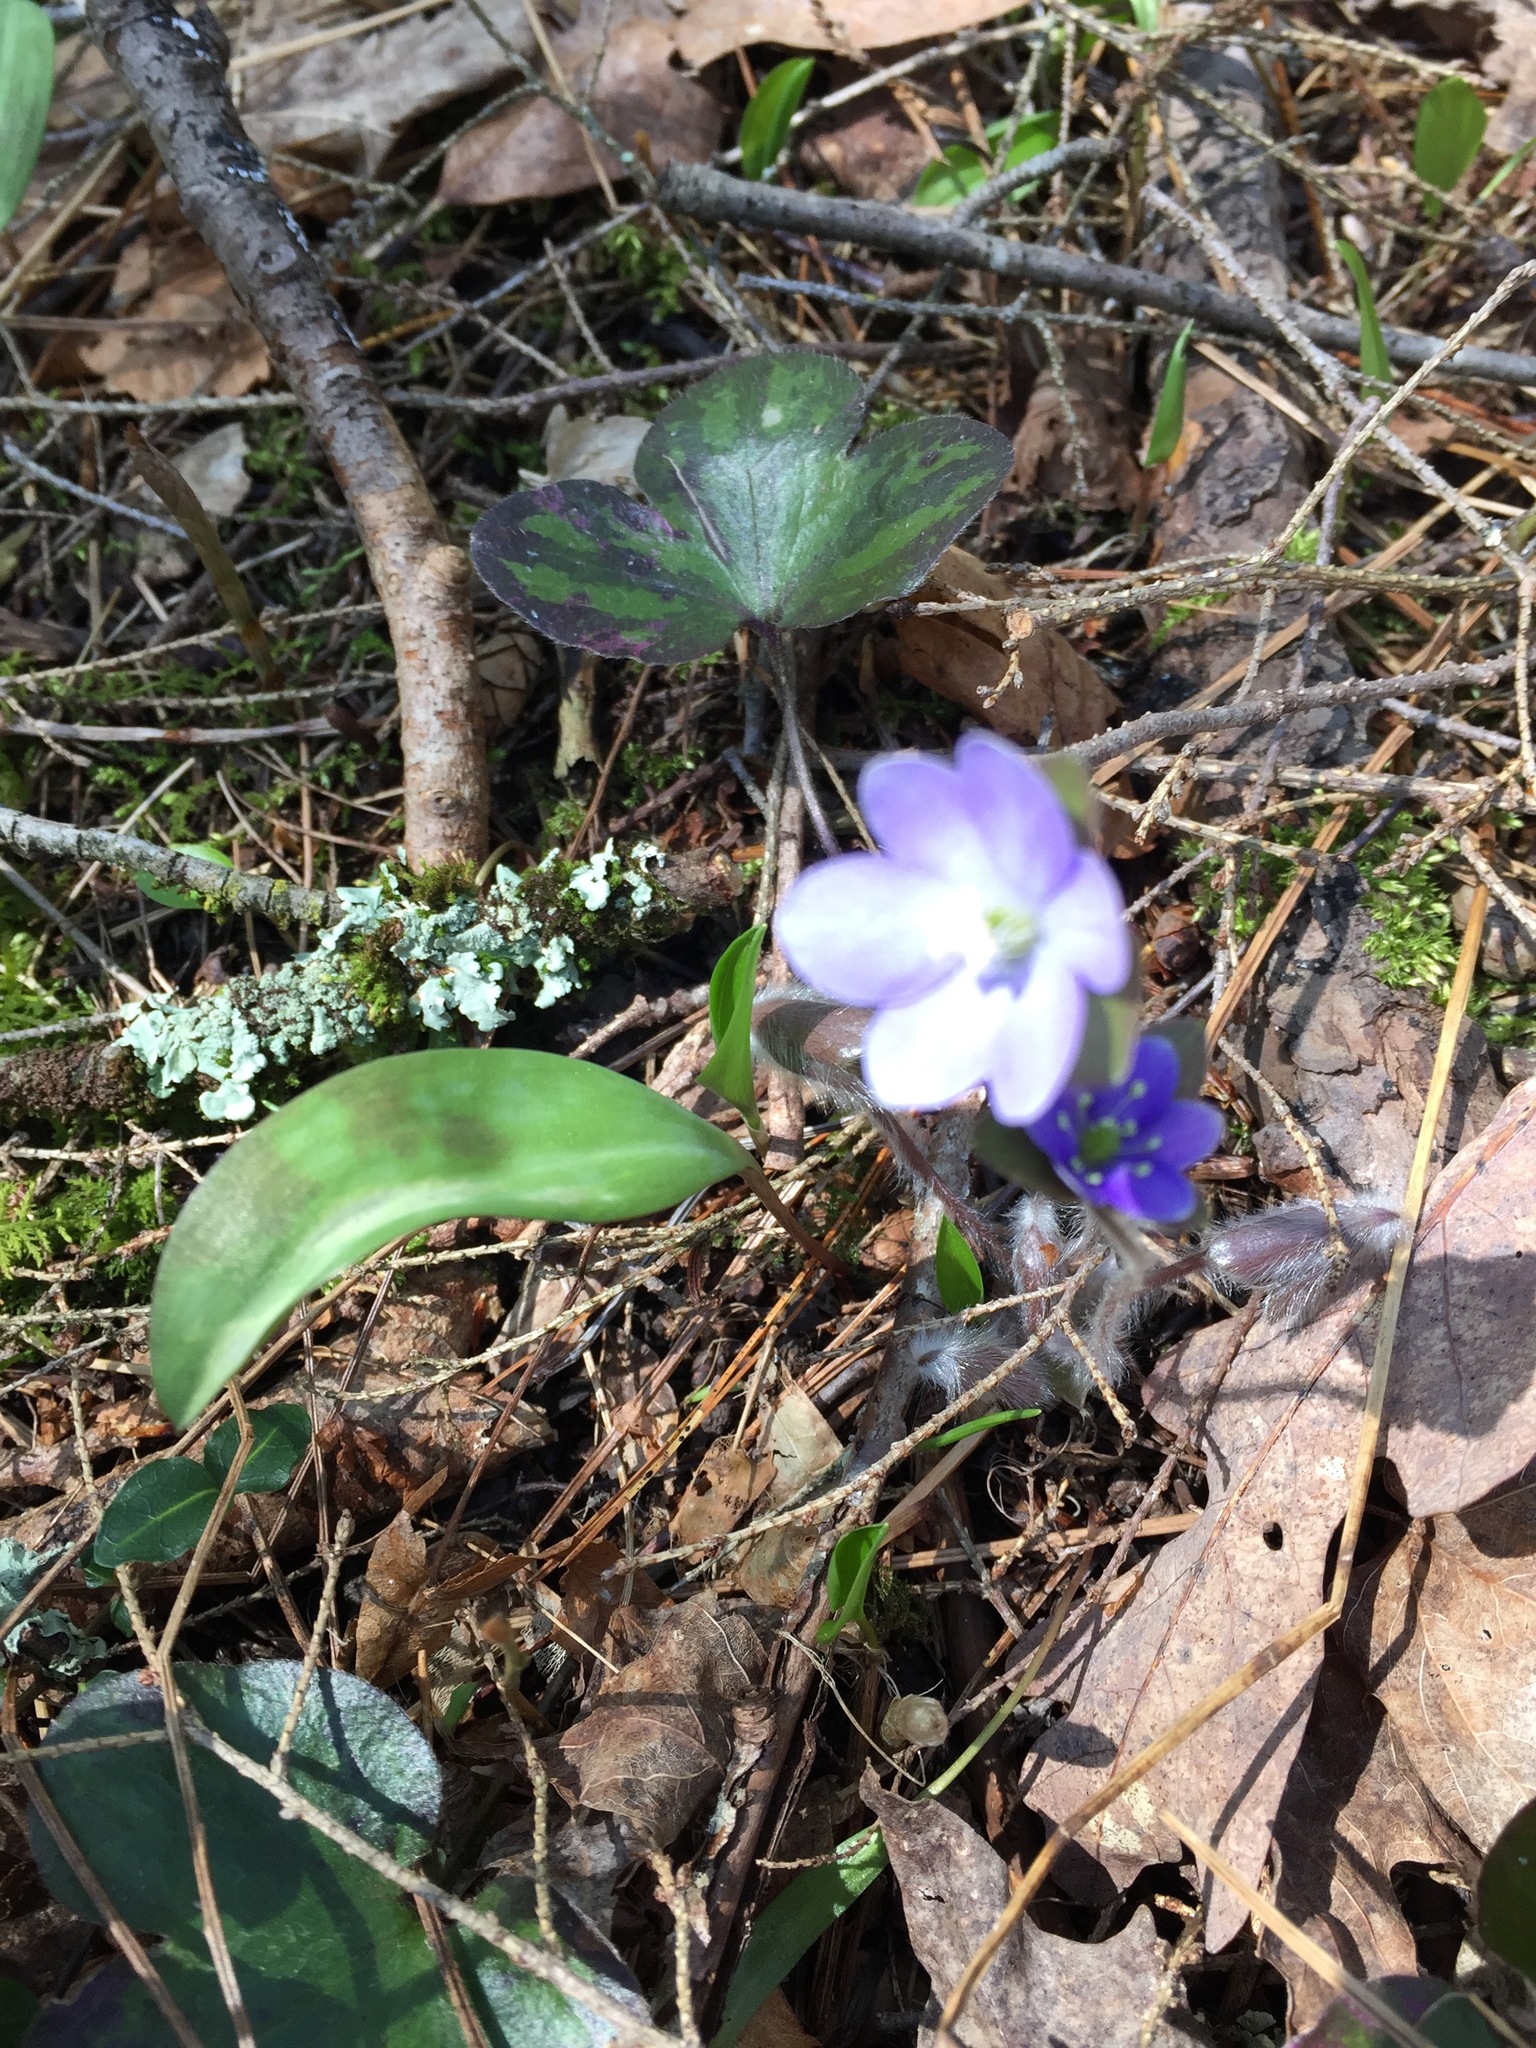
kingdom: Plantae
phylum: Tracheophyta
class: Magnoliopsida
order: Ranunculales
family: Ranunculaceae
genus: Hepatica
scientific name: Hepatica americana
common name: American hepatica
